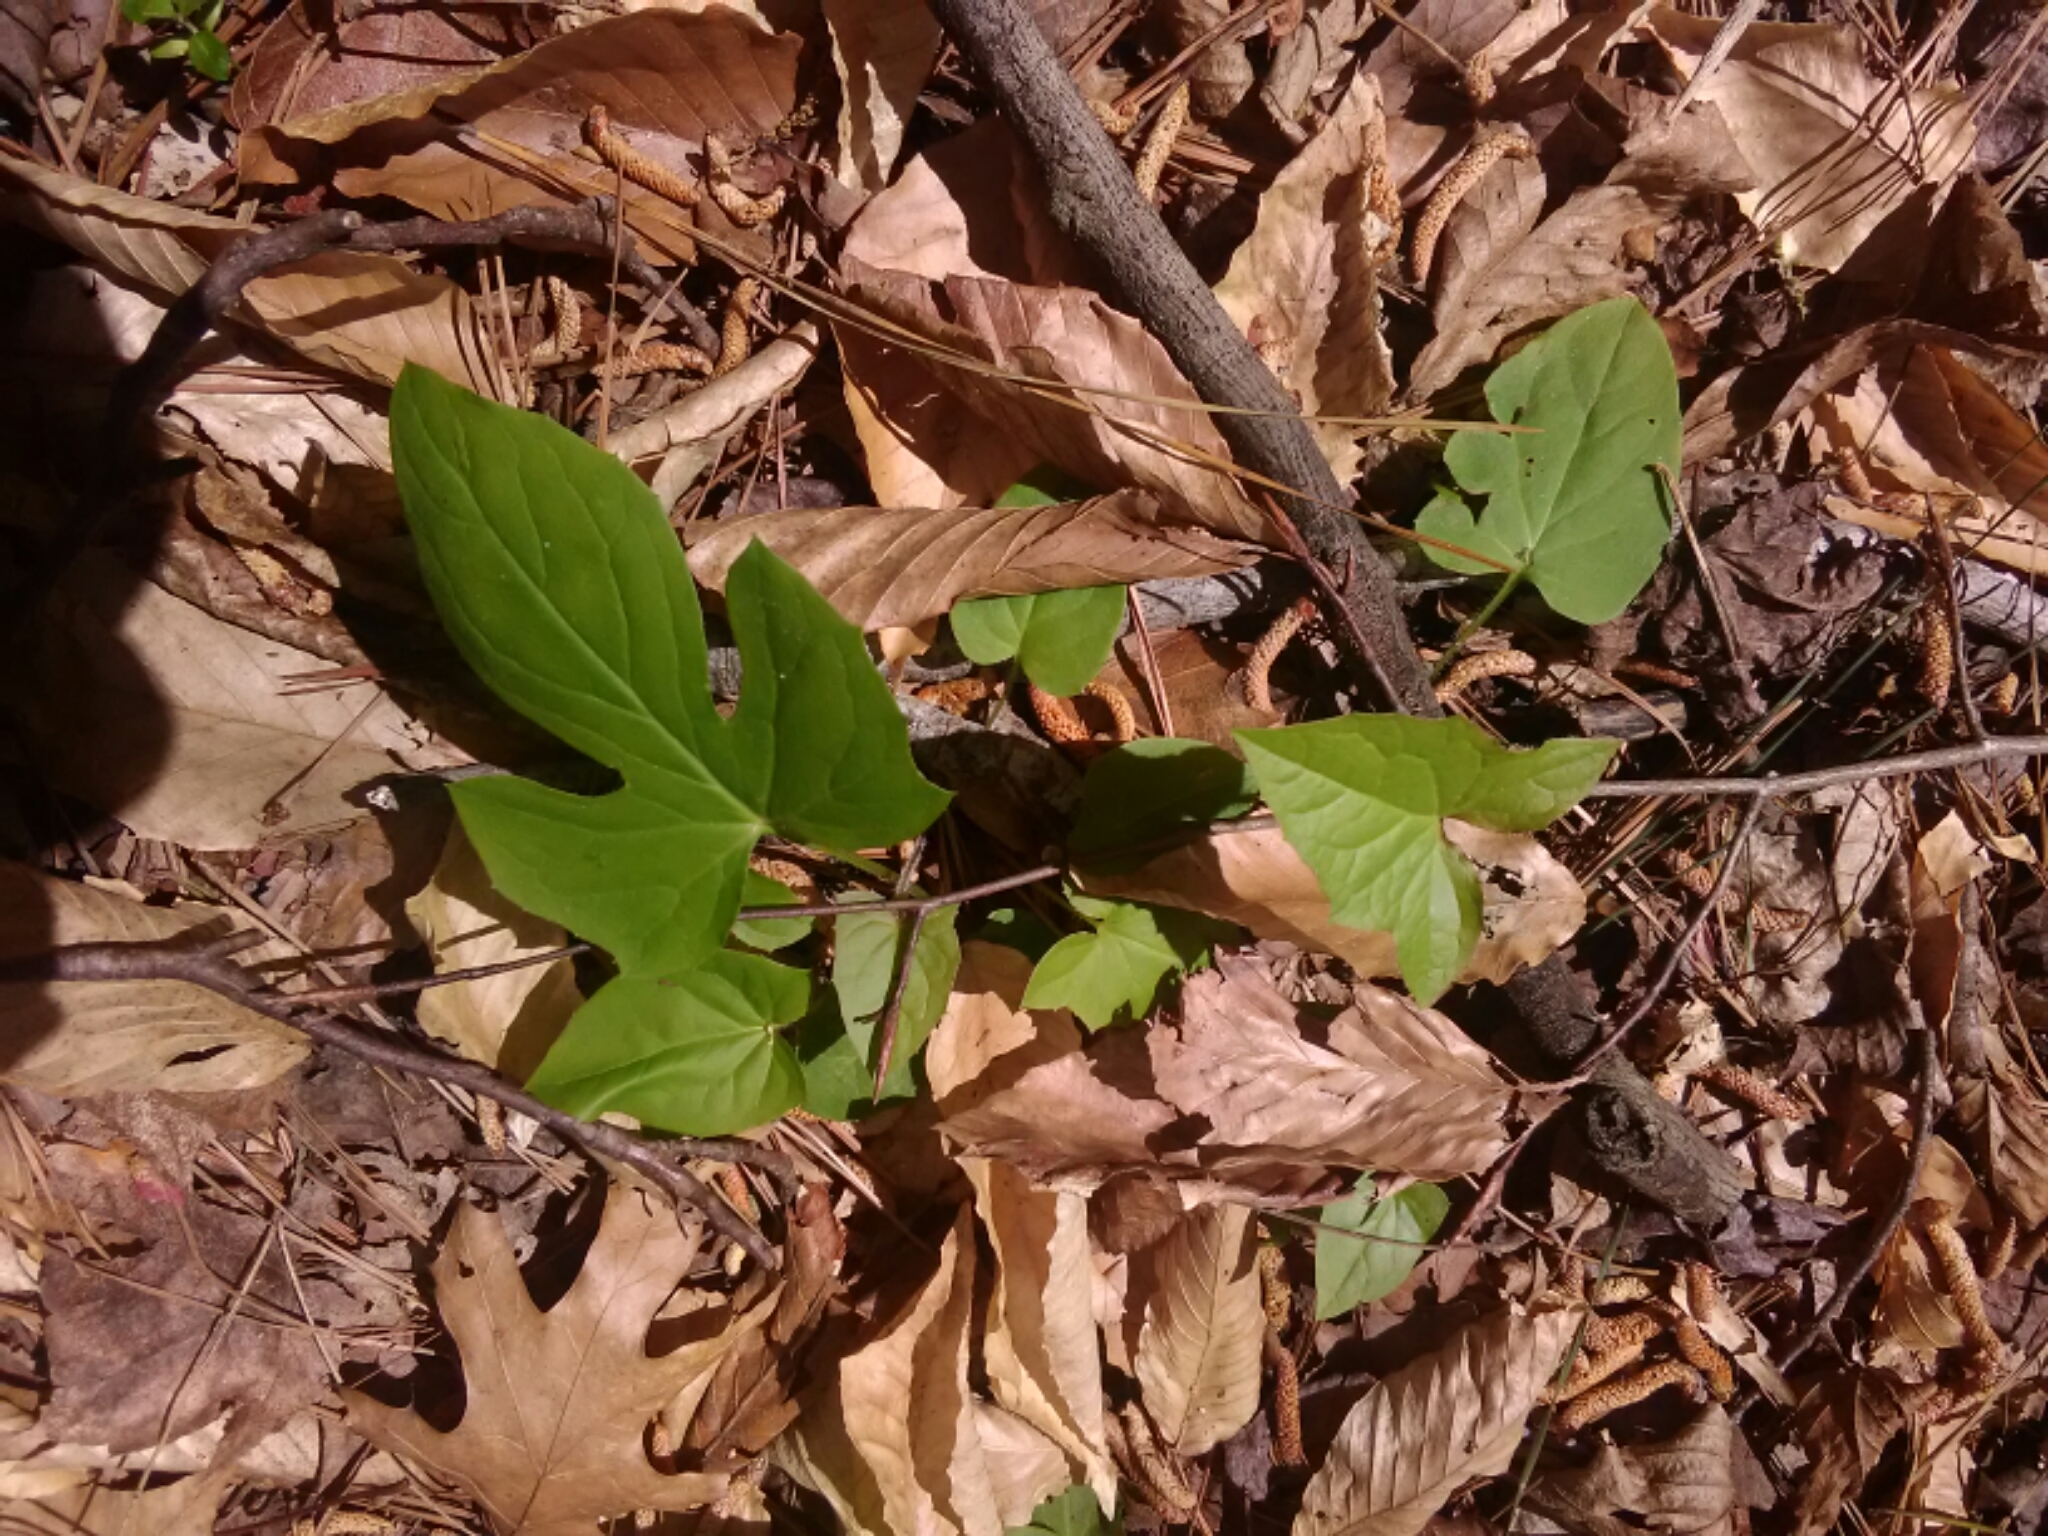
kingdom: Plantae
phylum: Tracheophyta
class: Magnoliopsida
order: Malpighiales
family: Violaceae
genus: Viola
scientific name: Viola palmata
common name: Early blue violet
